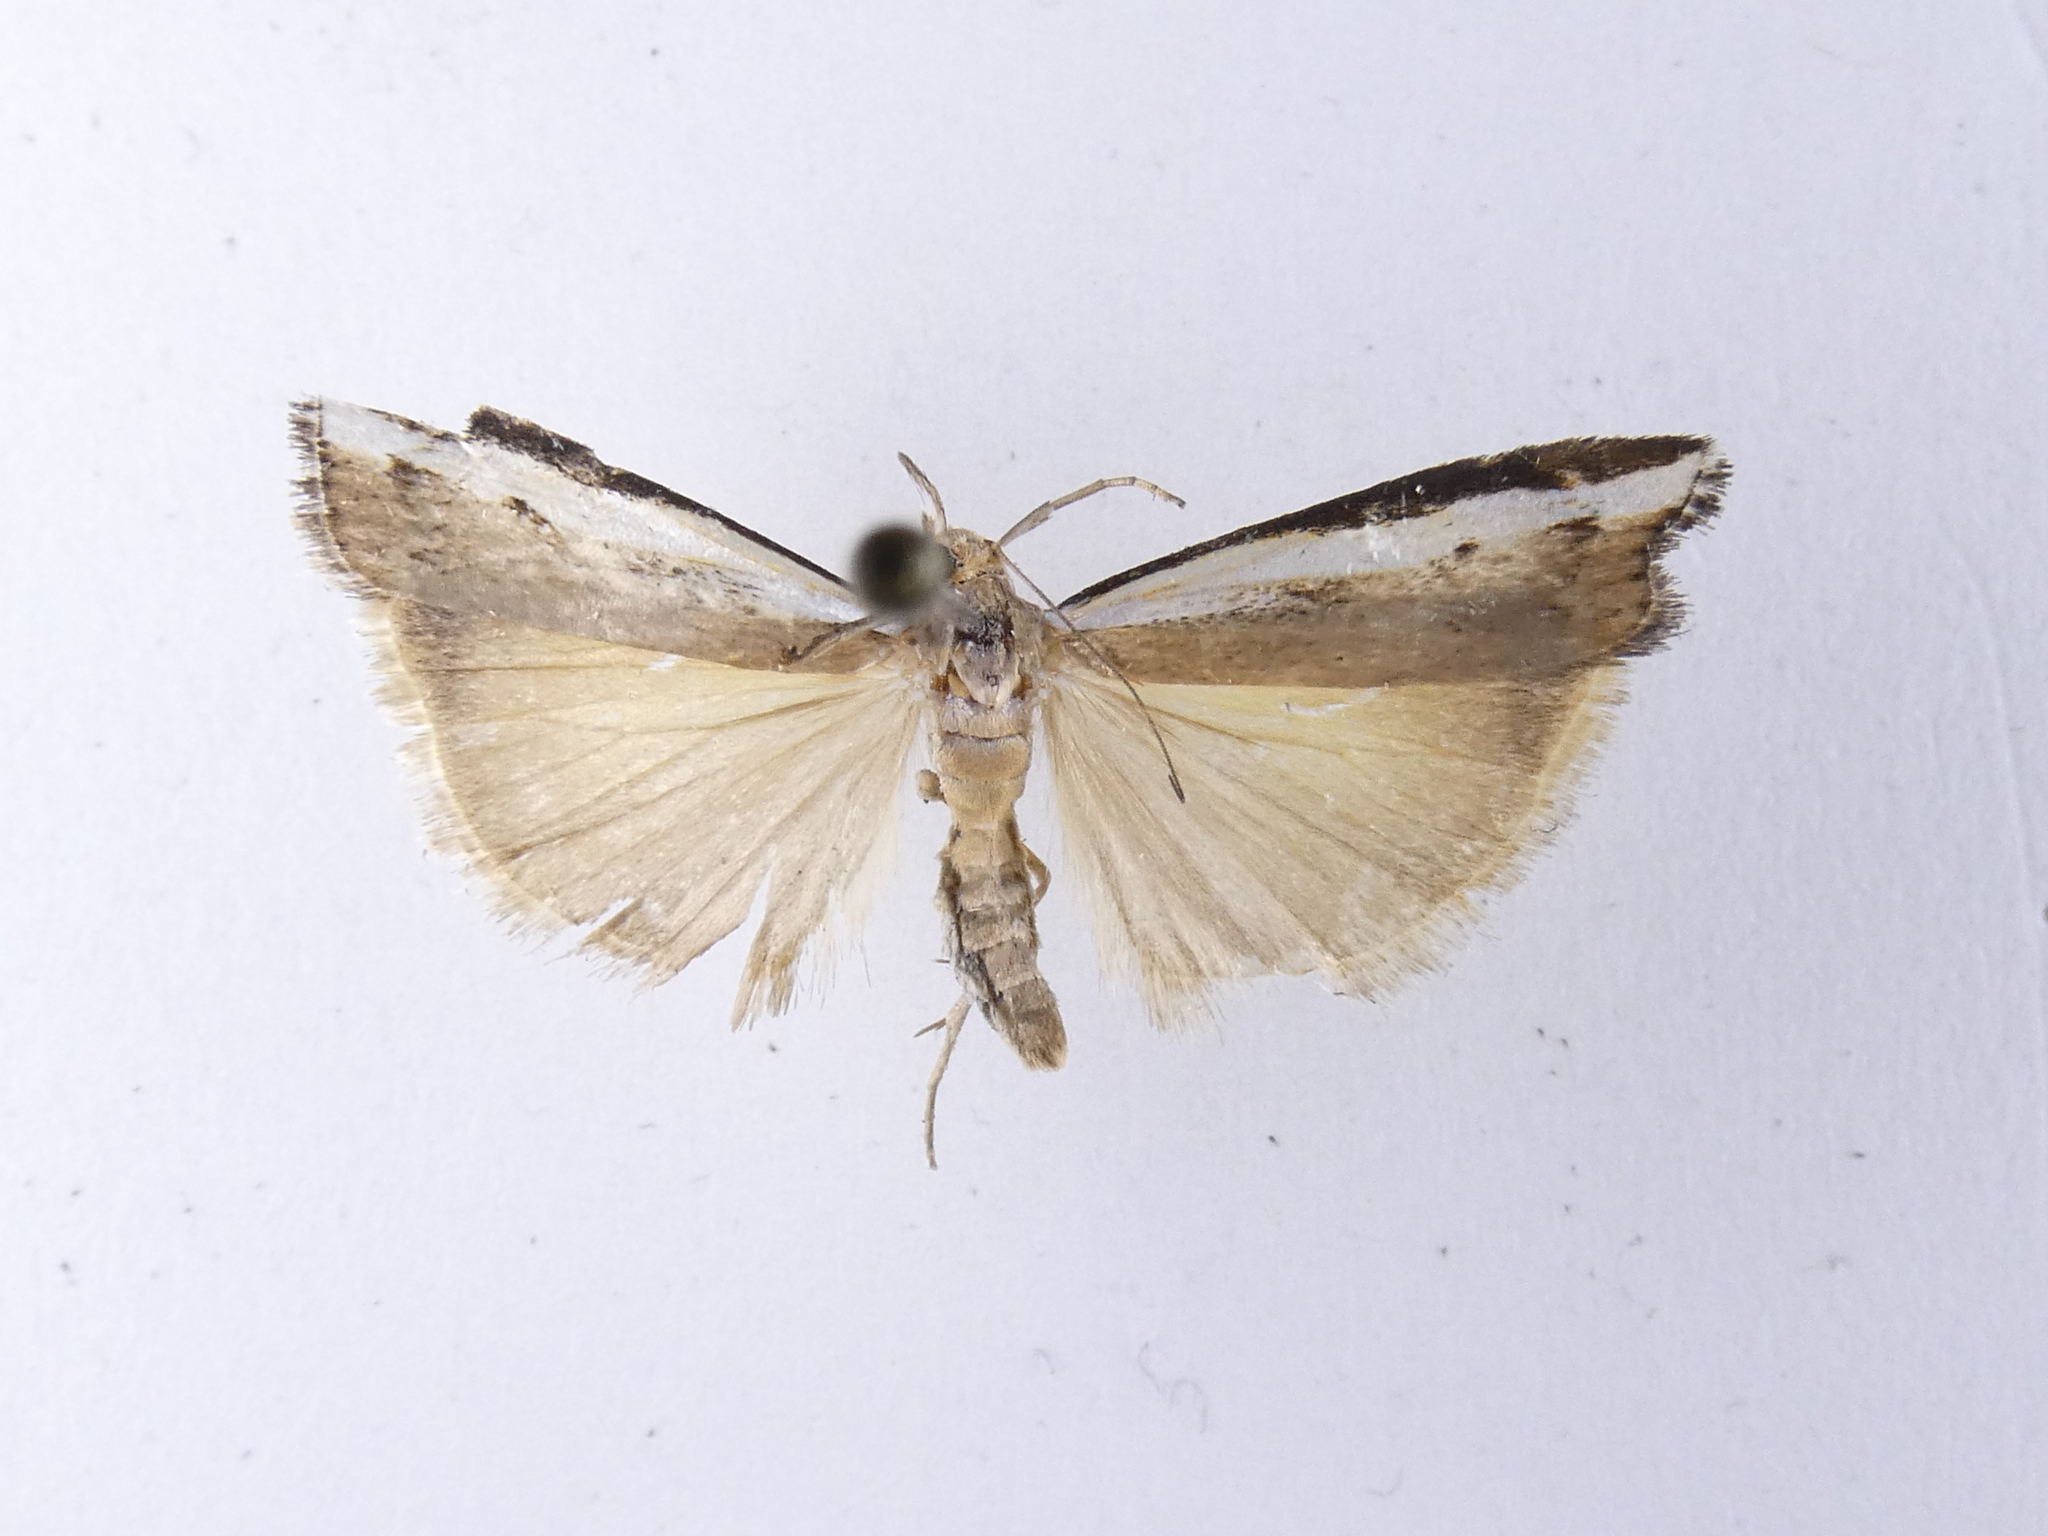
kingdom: Animalia
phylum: Arthropoda
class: Insecta
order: Lepidoptera
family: Crambidae
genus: Orocrambus
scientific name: Orocrambus flexuosellus
